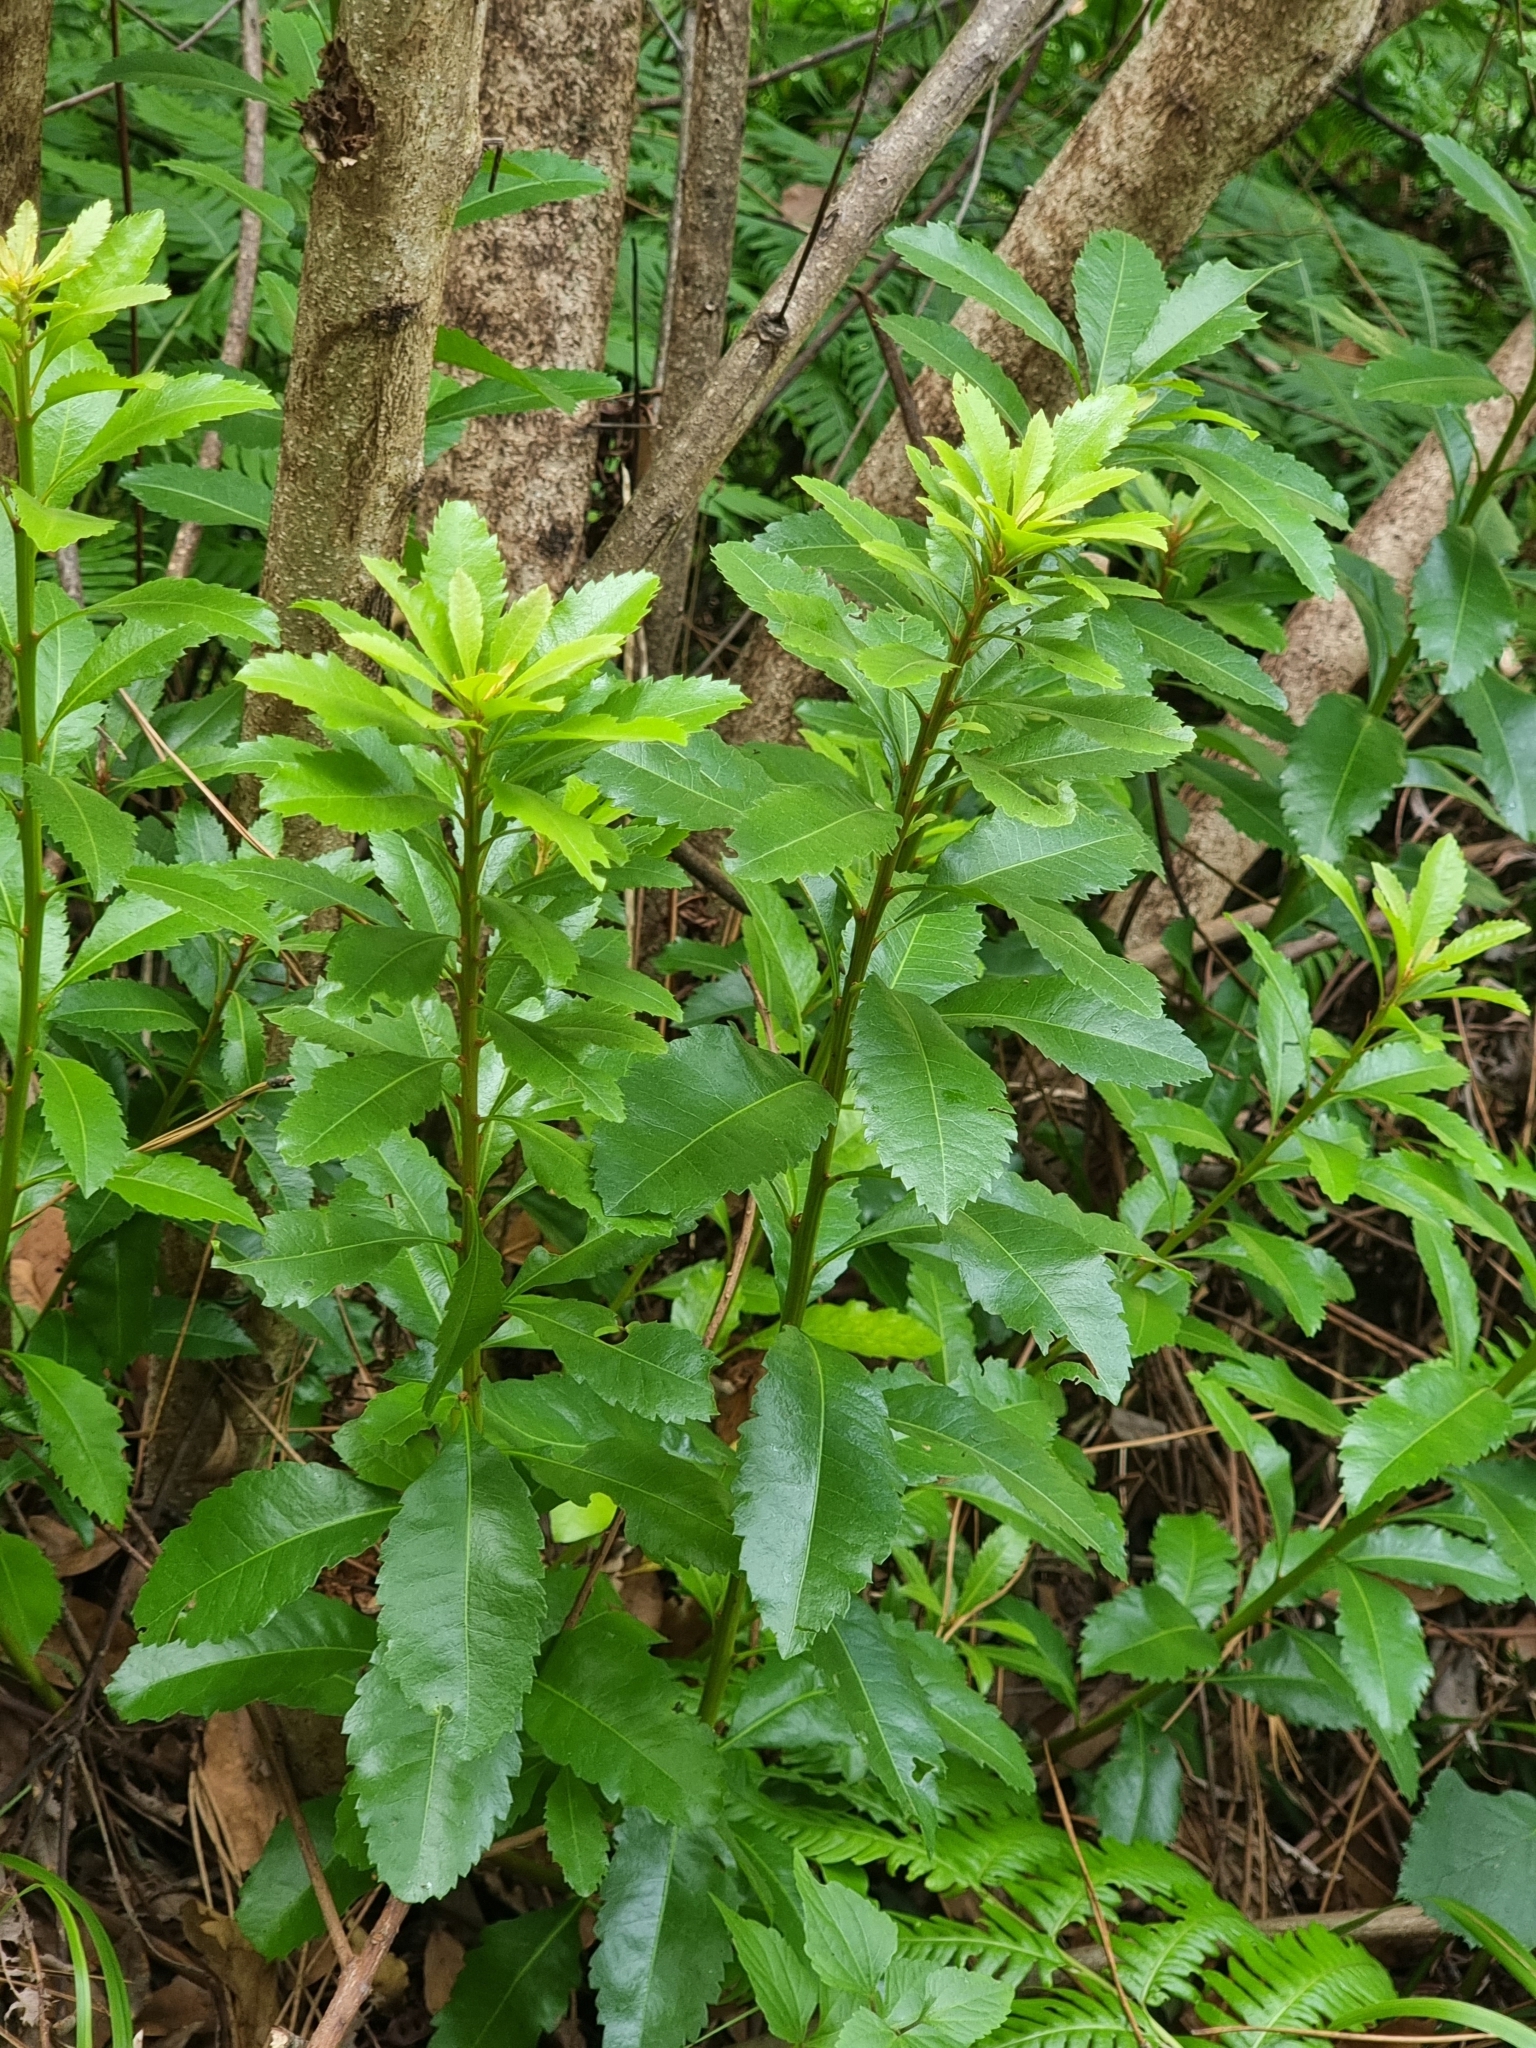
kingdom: Plantae
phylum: Tracheophyta
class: Magnoliopsida
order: Fagales
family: Myricaceae
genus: Morella
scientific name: Morella faya
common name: Firetree
